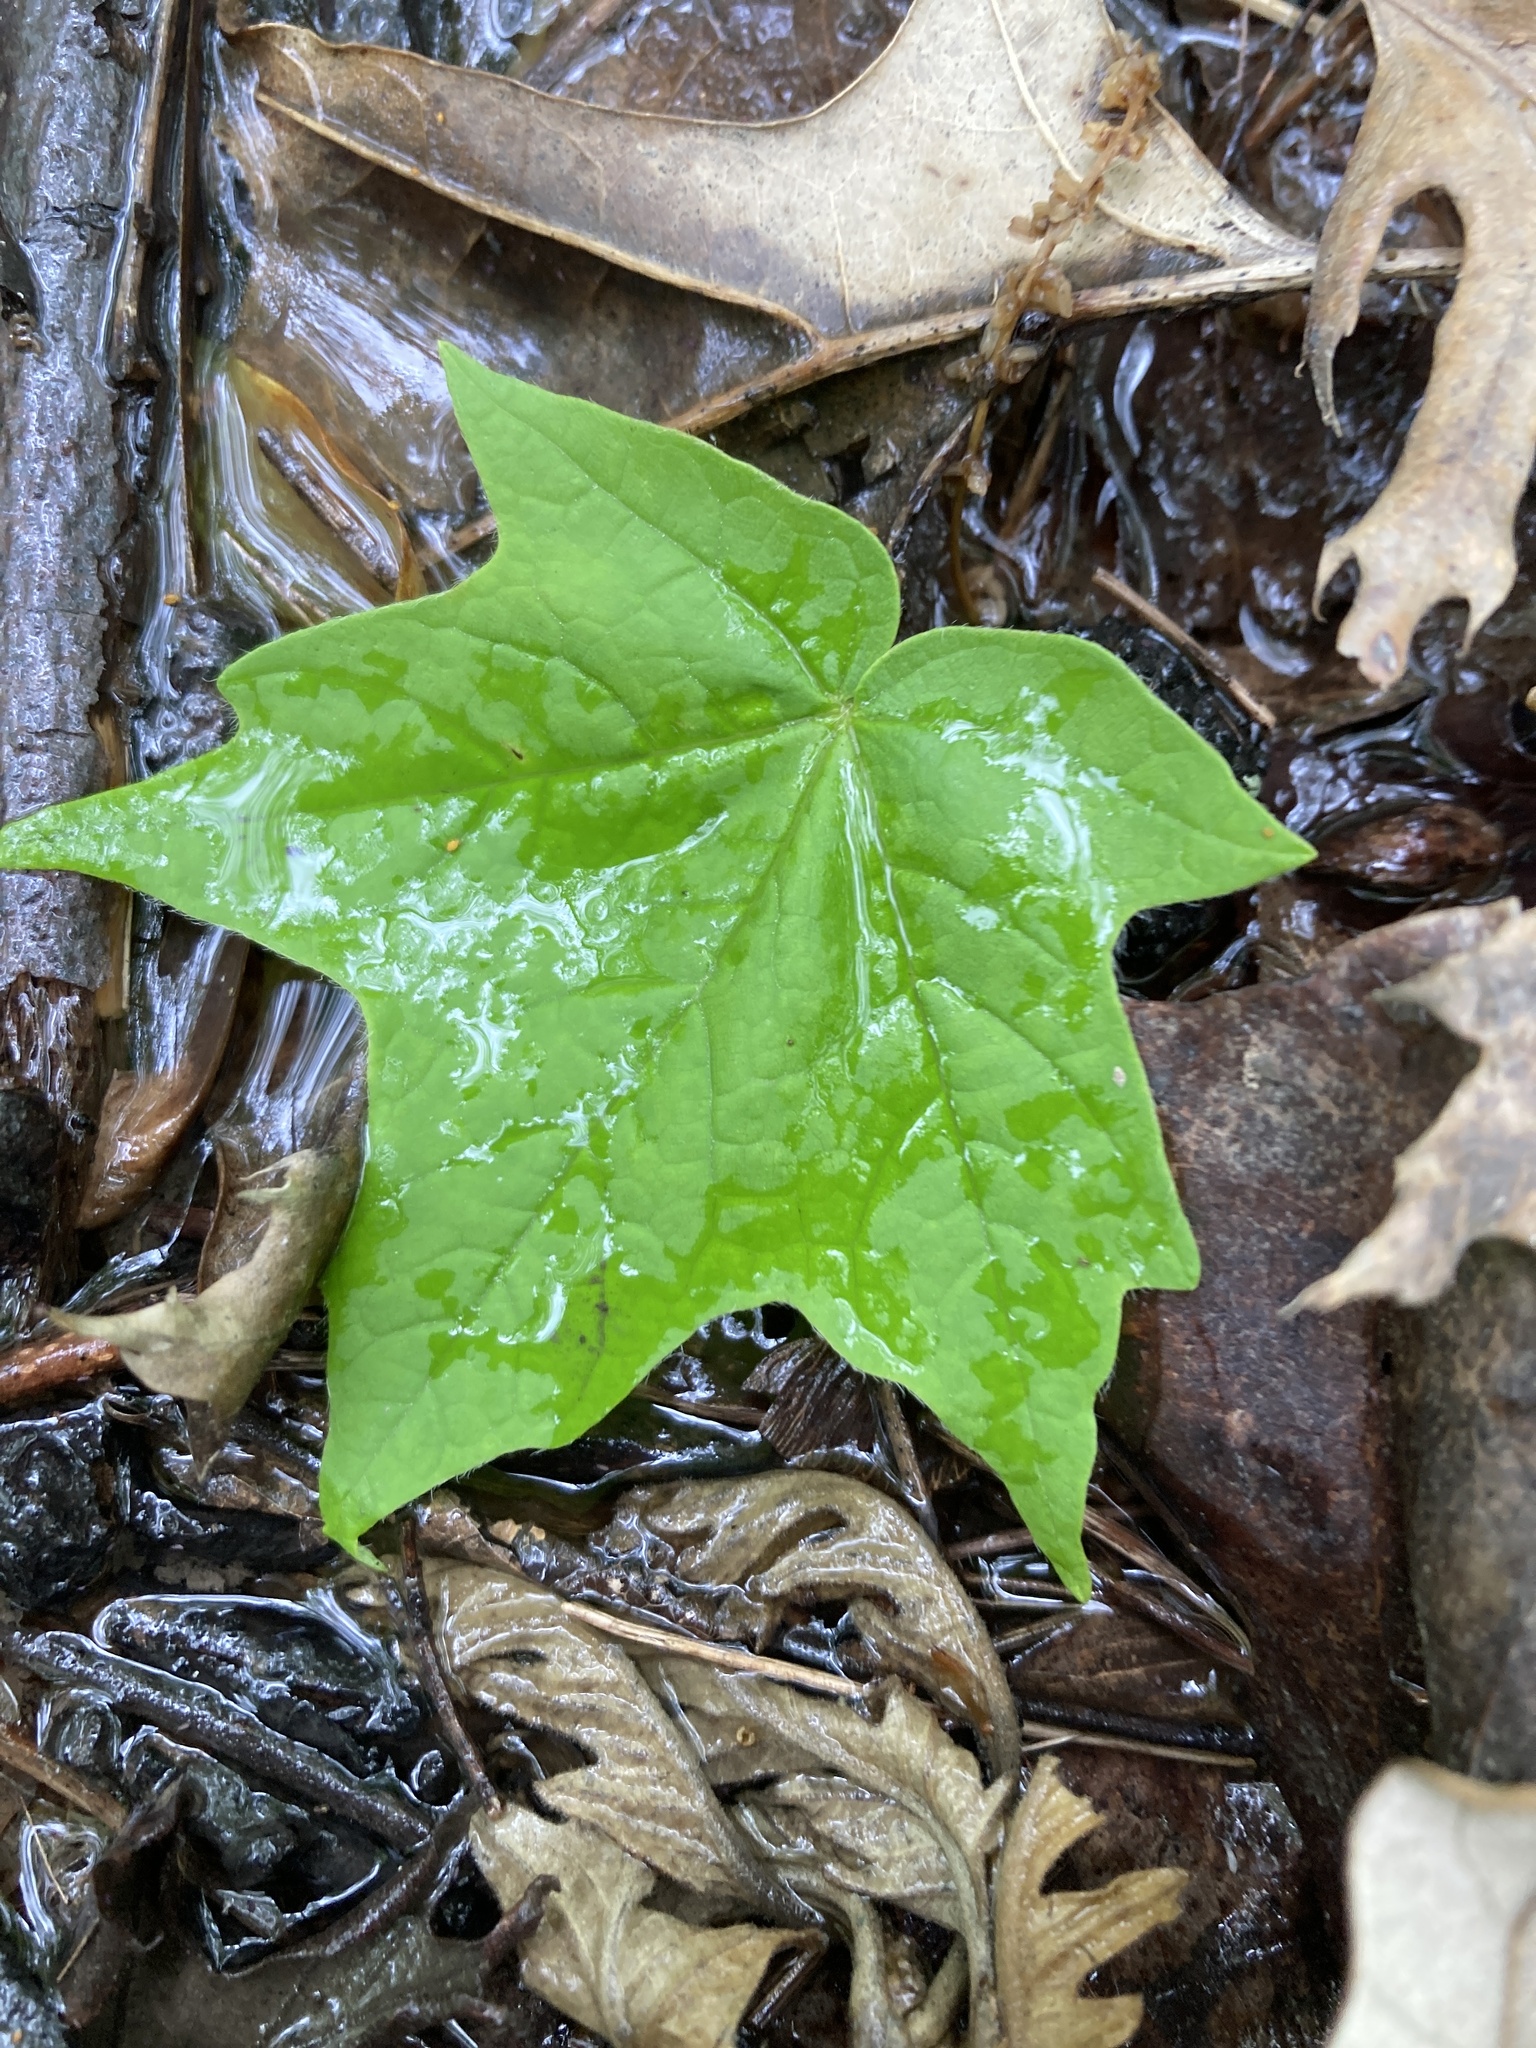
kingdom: Plantae
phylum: Tracheophyta
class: Magnoliopsida
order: Saxifragales
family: Altingiaceae
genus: Liquidambar
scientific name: Liquidambar styraciflua
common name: Sweet gum
